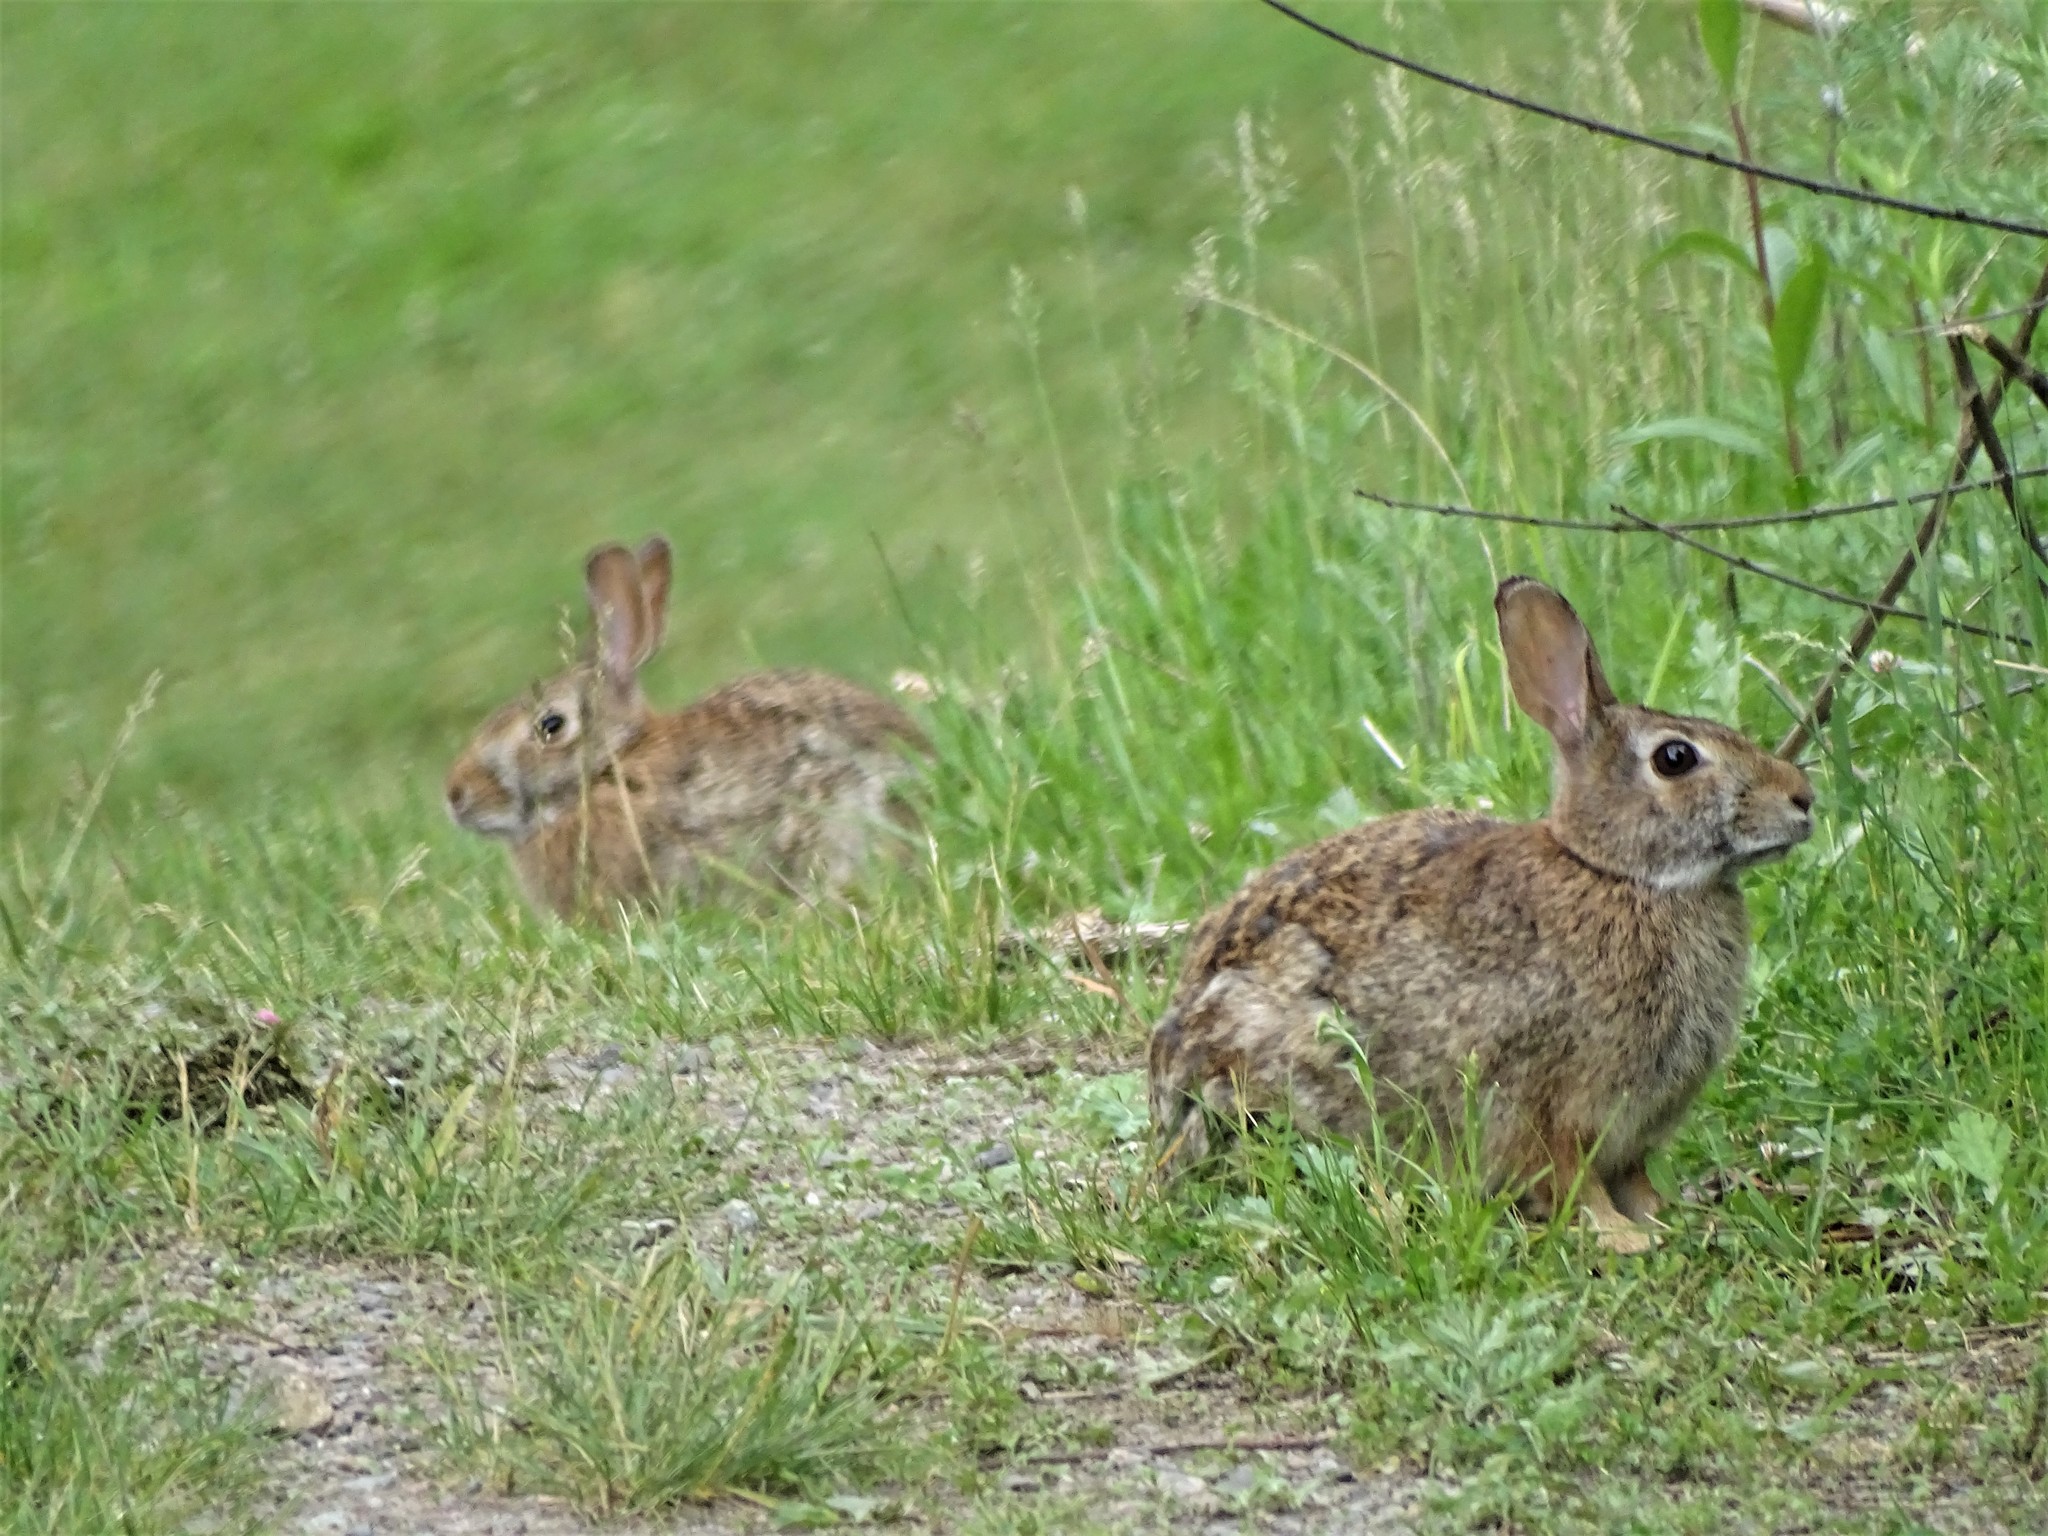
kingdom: Animalia
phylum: Chordata
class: Mammalia
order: Lagomorpha
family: Leporidae
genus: Sylvilagus
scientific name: Sylvilagus floridanus
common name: Eastern cottontail
